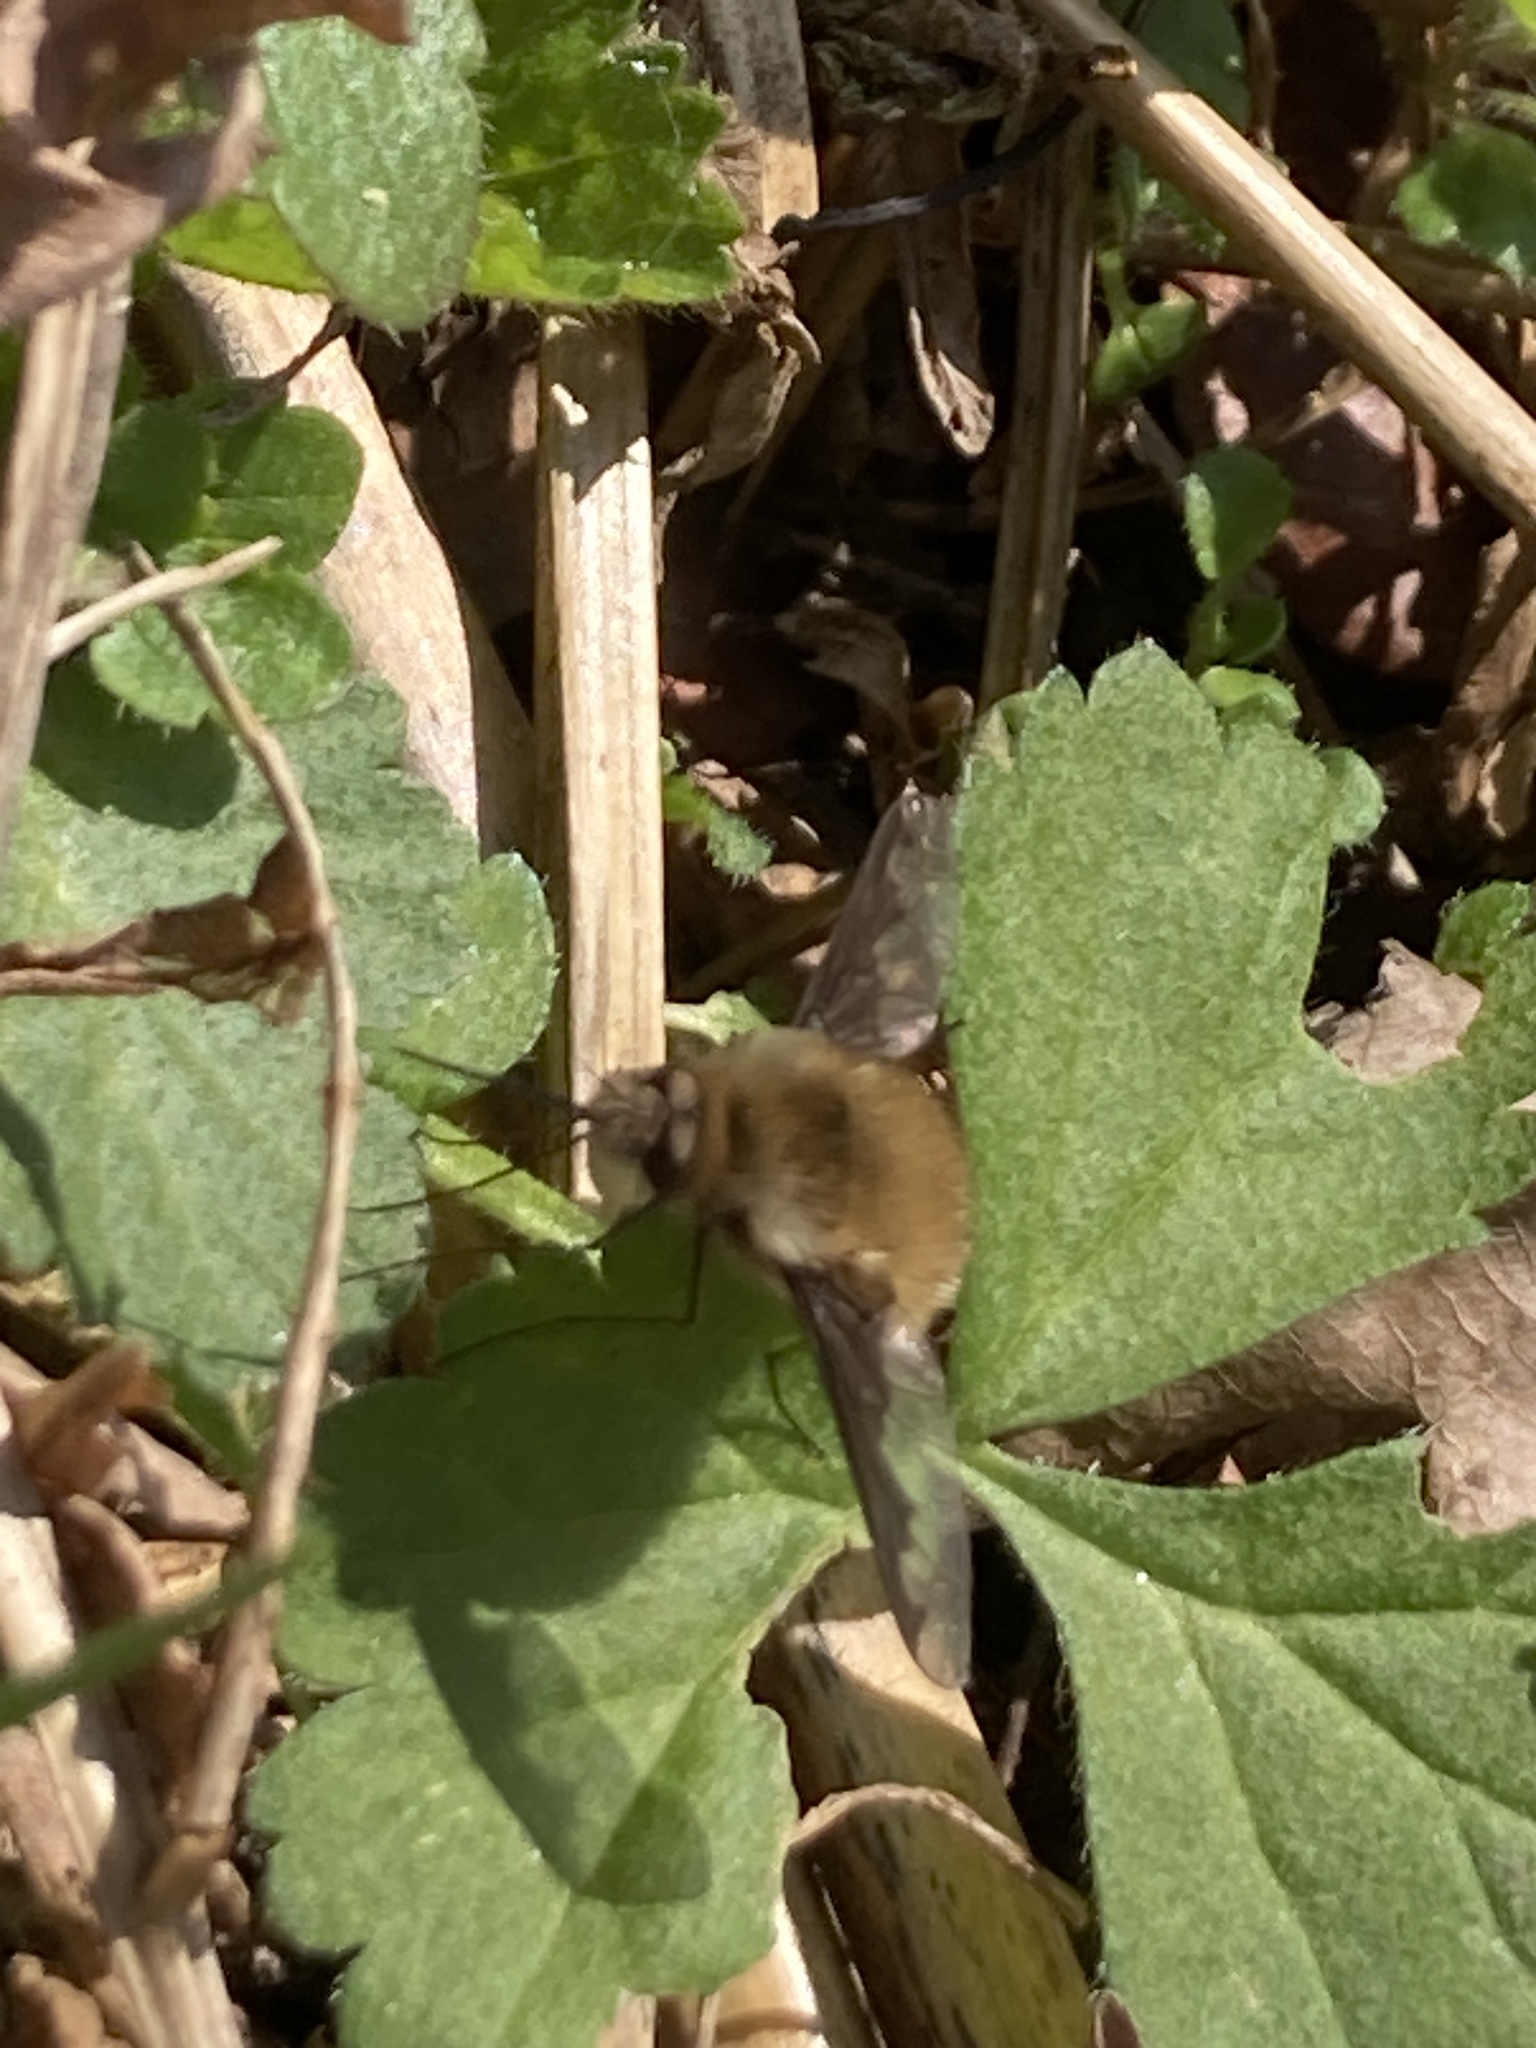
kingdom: Animalia
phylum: Arthropoda
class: Insecta
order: Diptera
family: Bombyliidae
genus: Bombylius
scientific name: Bombylius major
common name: Bee fly
